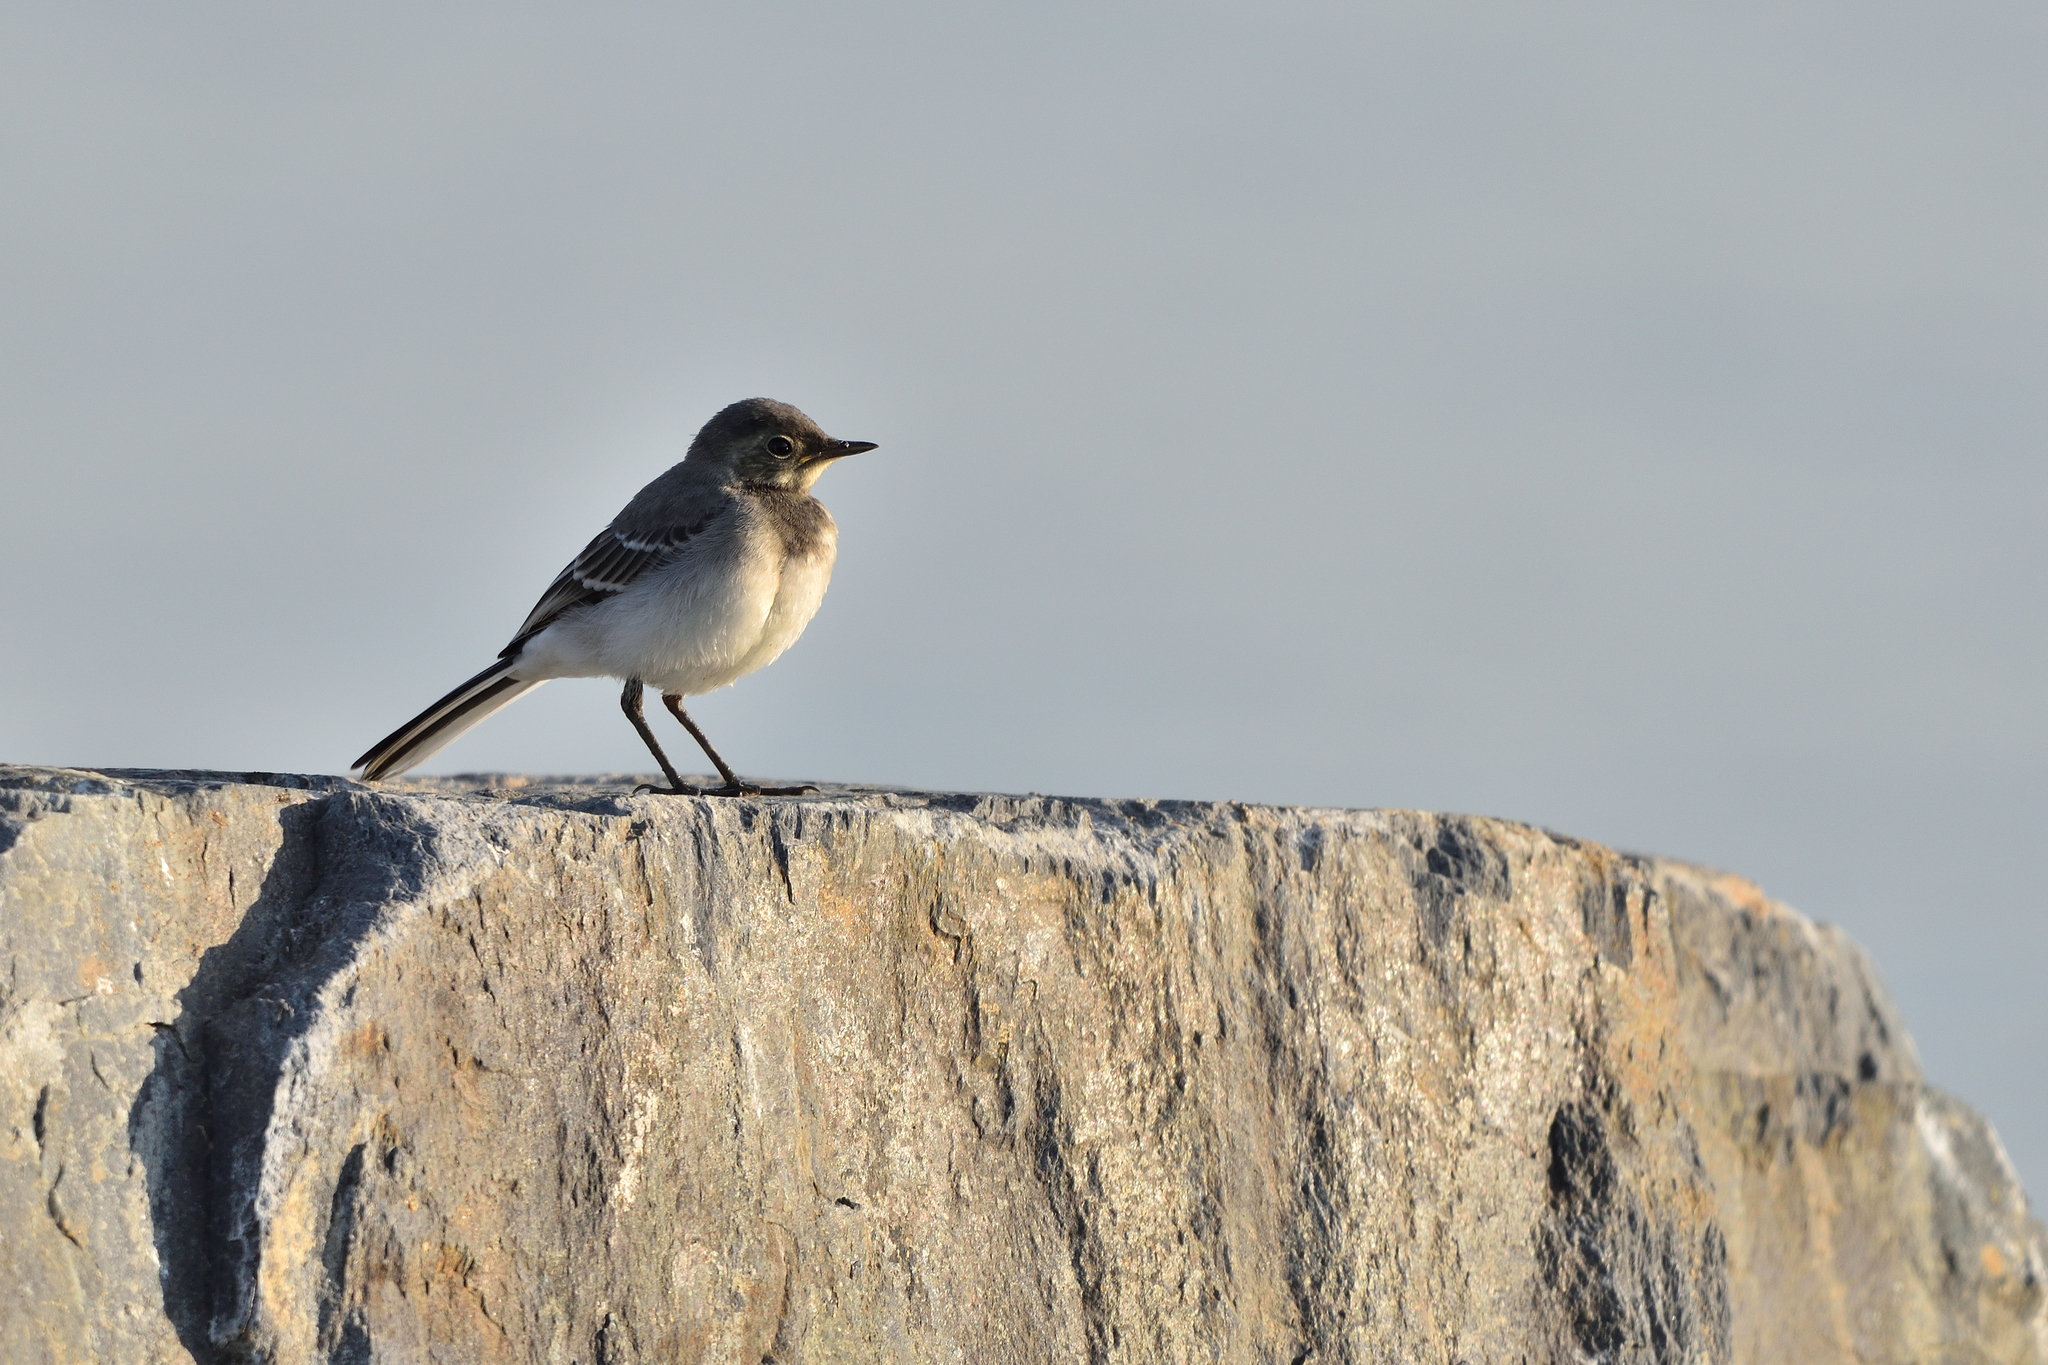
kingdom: Animalia
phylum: Chordata
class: Aves
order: Passeriformes
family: Motacillidae
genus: Motacilla
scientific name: Motacilla alba
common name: White wagtail
